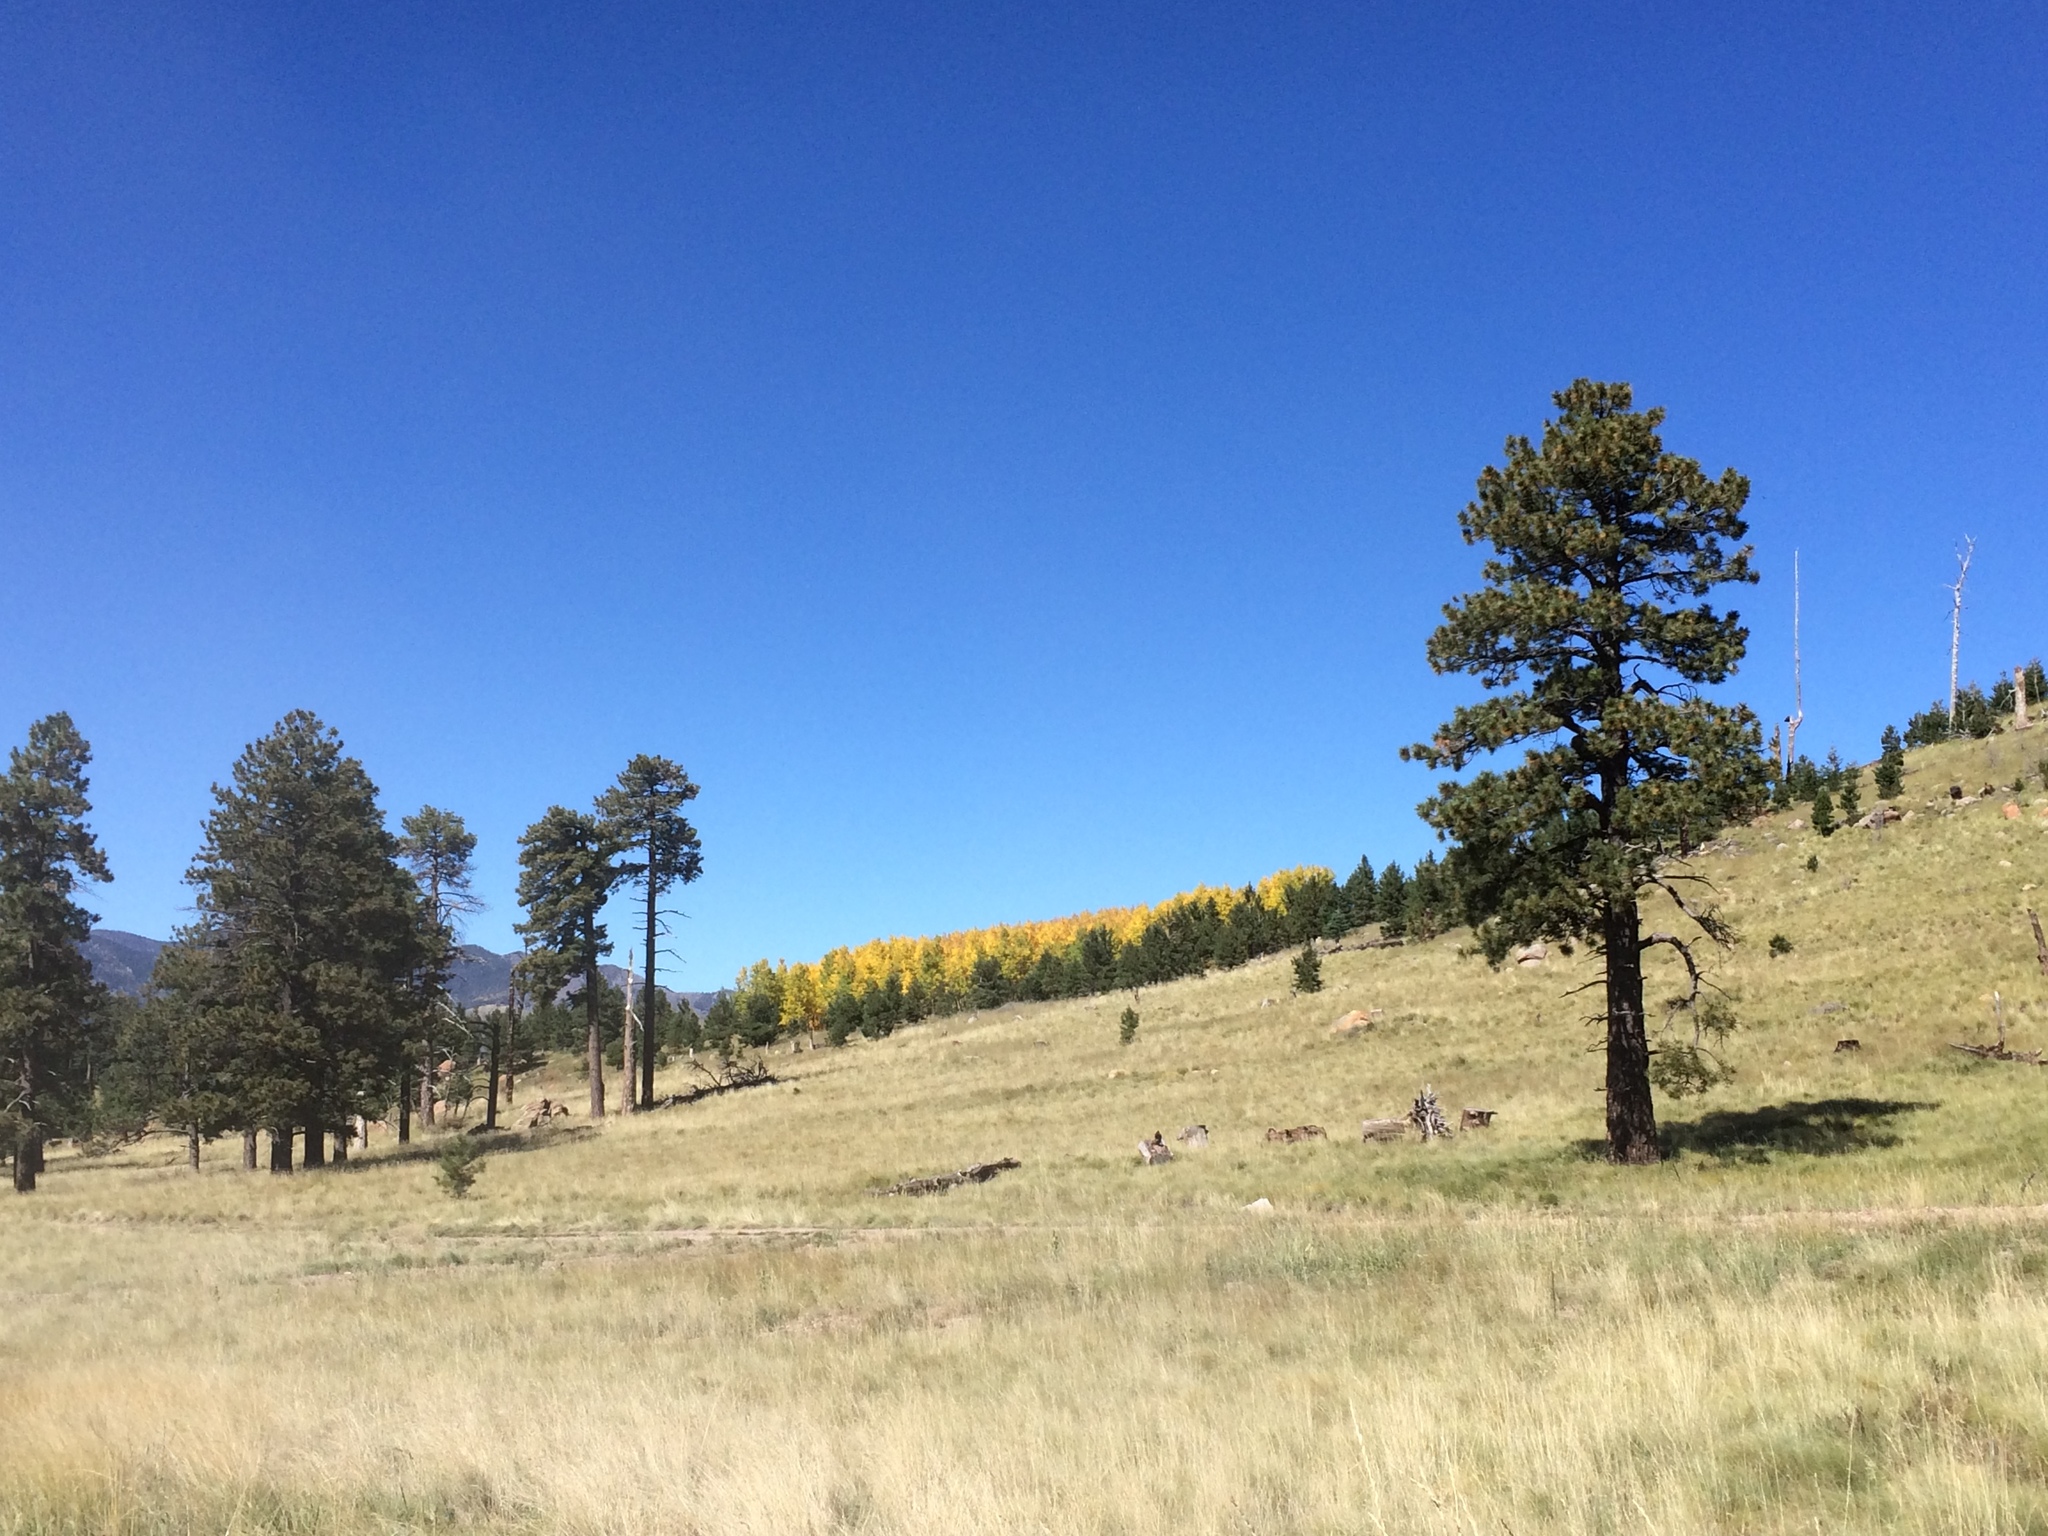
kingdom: Plantae
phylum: Tracheophyta
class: Pinopsida
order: Pinales
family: Pinaceae
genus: Pinus
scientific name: Pinus ponderosa
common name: Western yellow-pine
